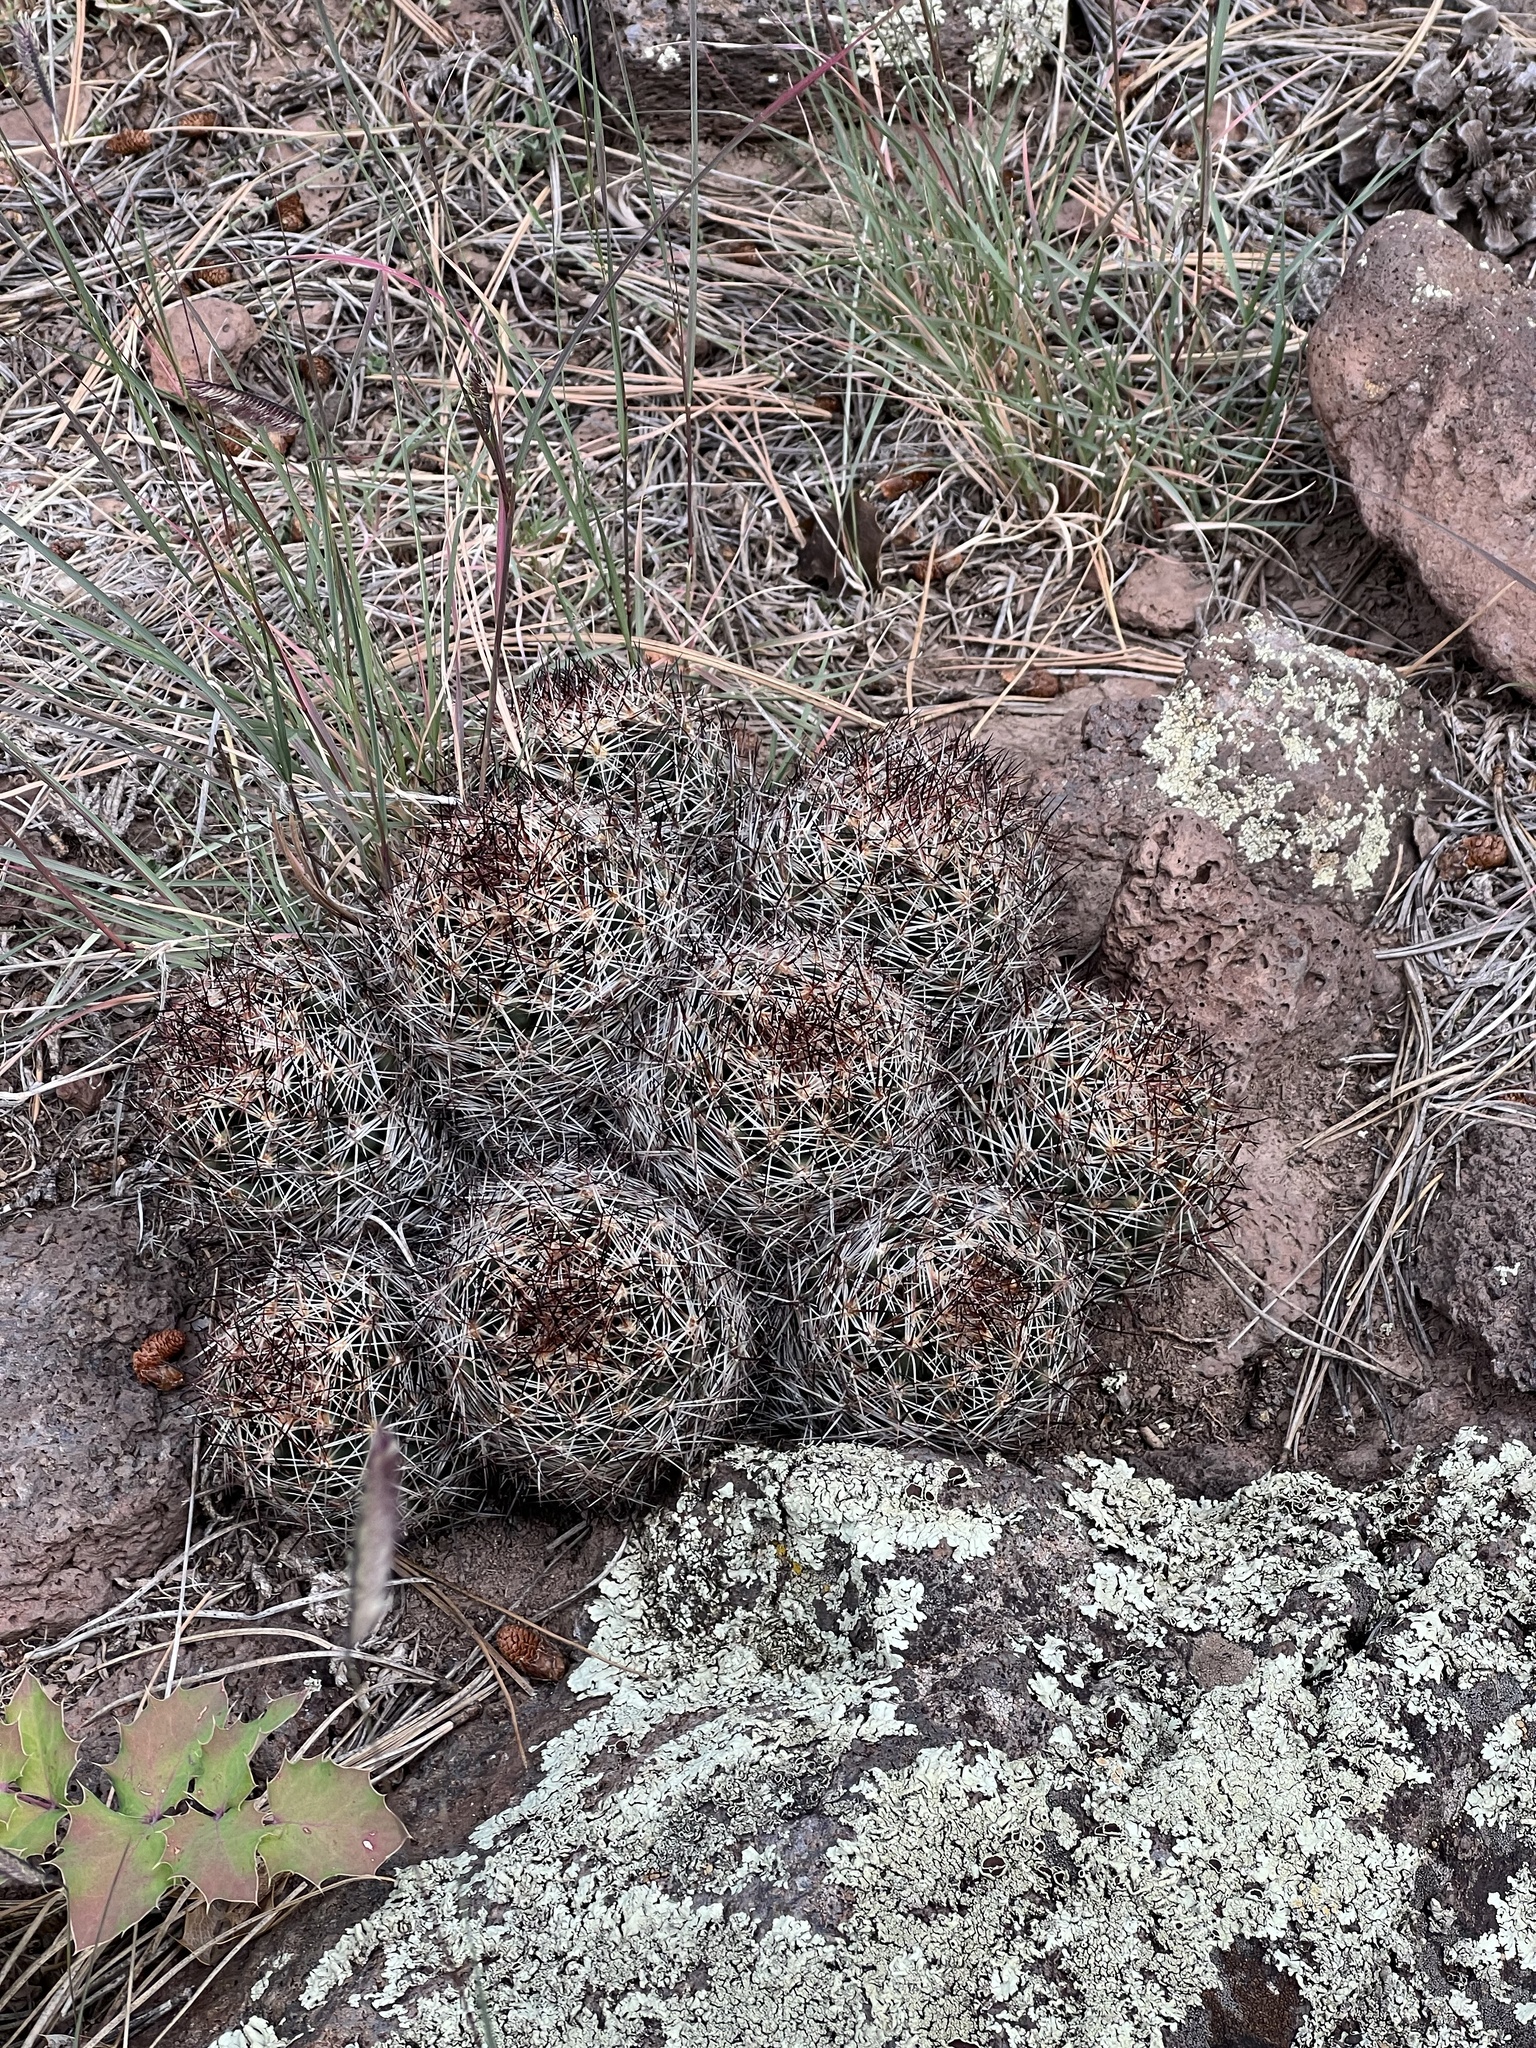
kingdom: Plantae
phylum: Tracheophyta
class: Magnoliopsida
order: Caryophyllales
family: Cactaceae
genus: Pelecyphora
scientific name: Pelecyphora vivipara
